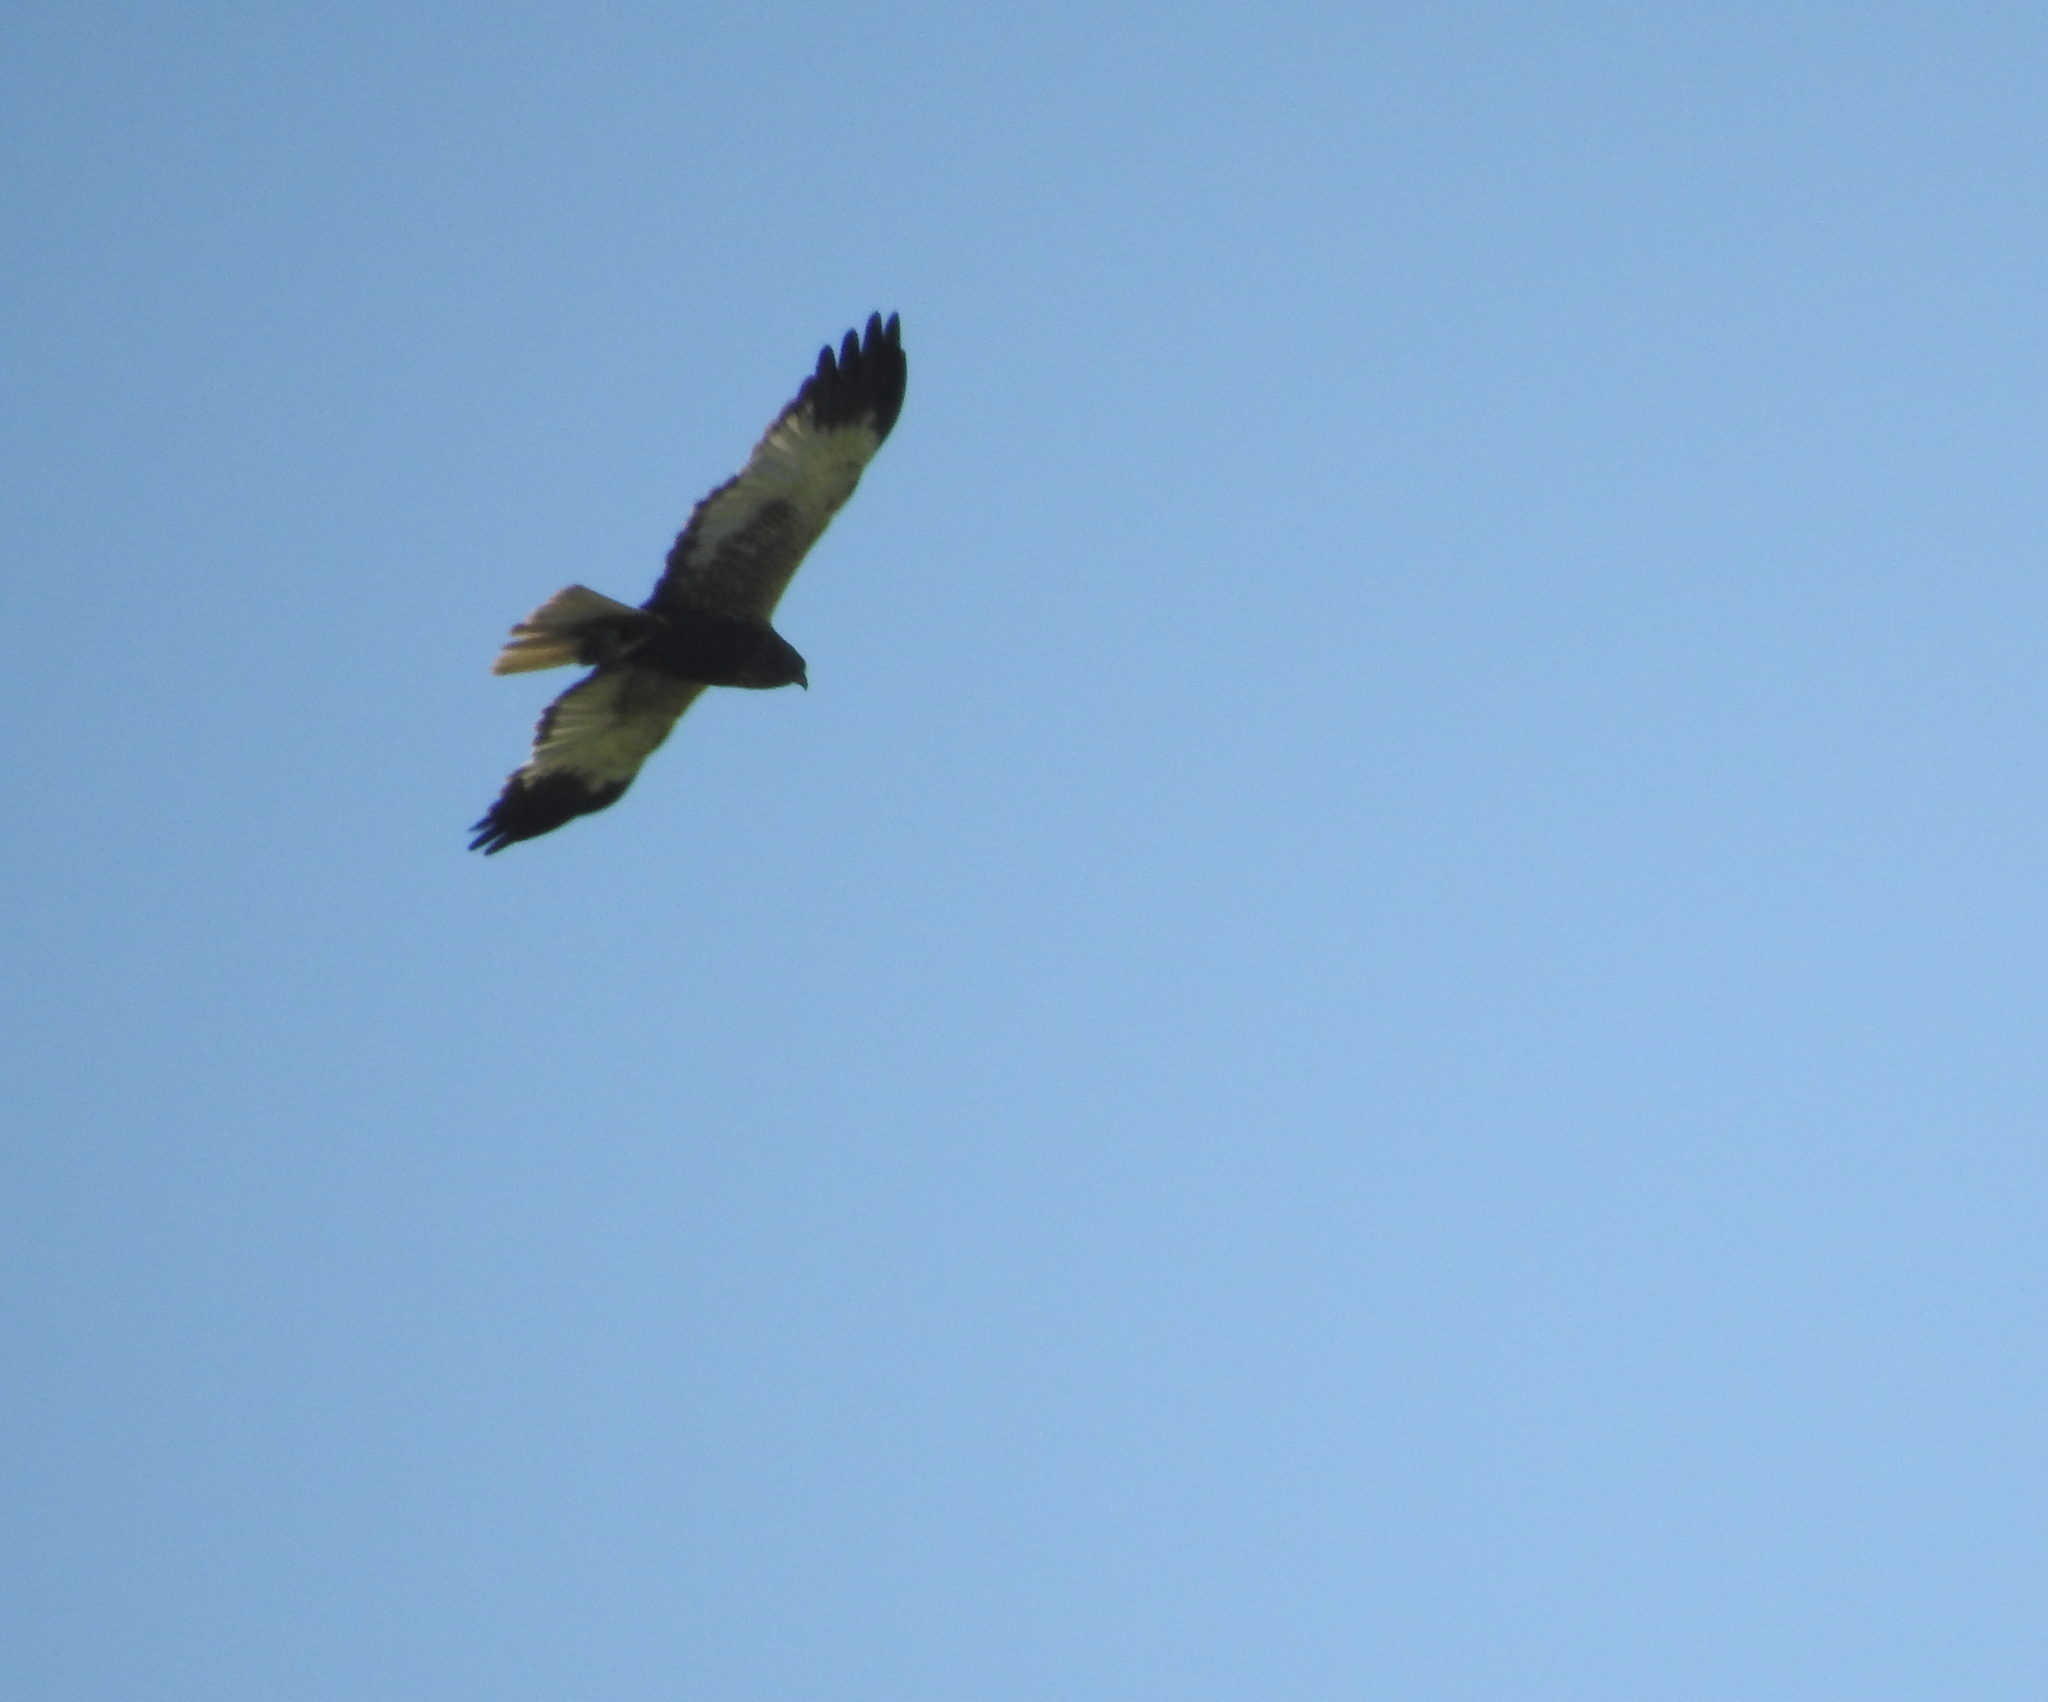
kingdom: Animalia
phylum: Chordata
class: Aves
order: Accipitriformes
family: Accipitridae
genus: Circus
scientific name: Circus aeruginosus
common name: Western marsh harrier
